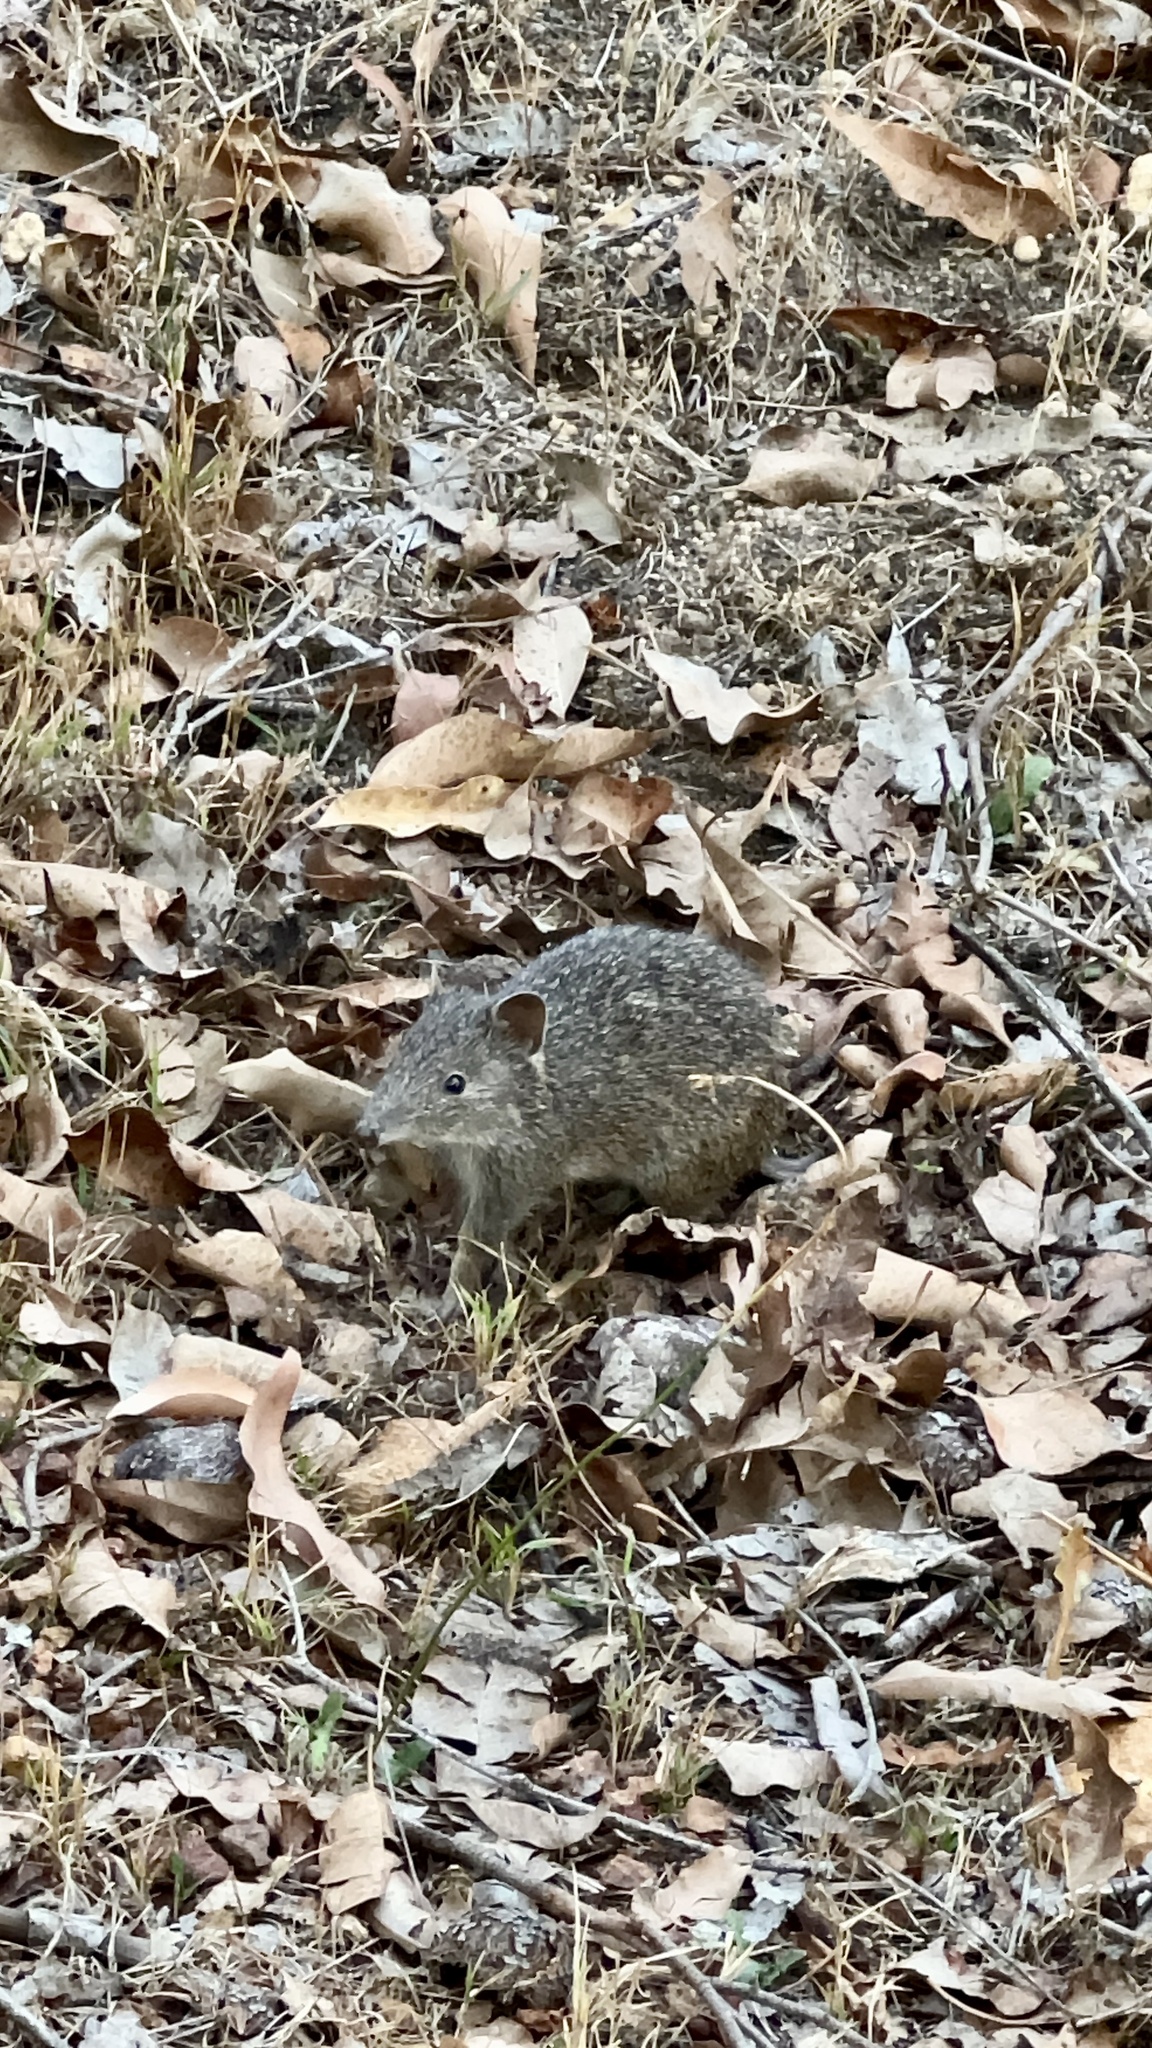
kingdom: Animalia
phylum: Chordata
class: Mammalia
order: Peramelemorphia
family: Peramelidae
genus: Isoodon
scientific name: Isoodon fusciventer
